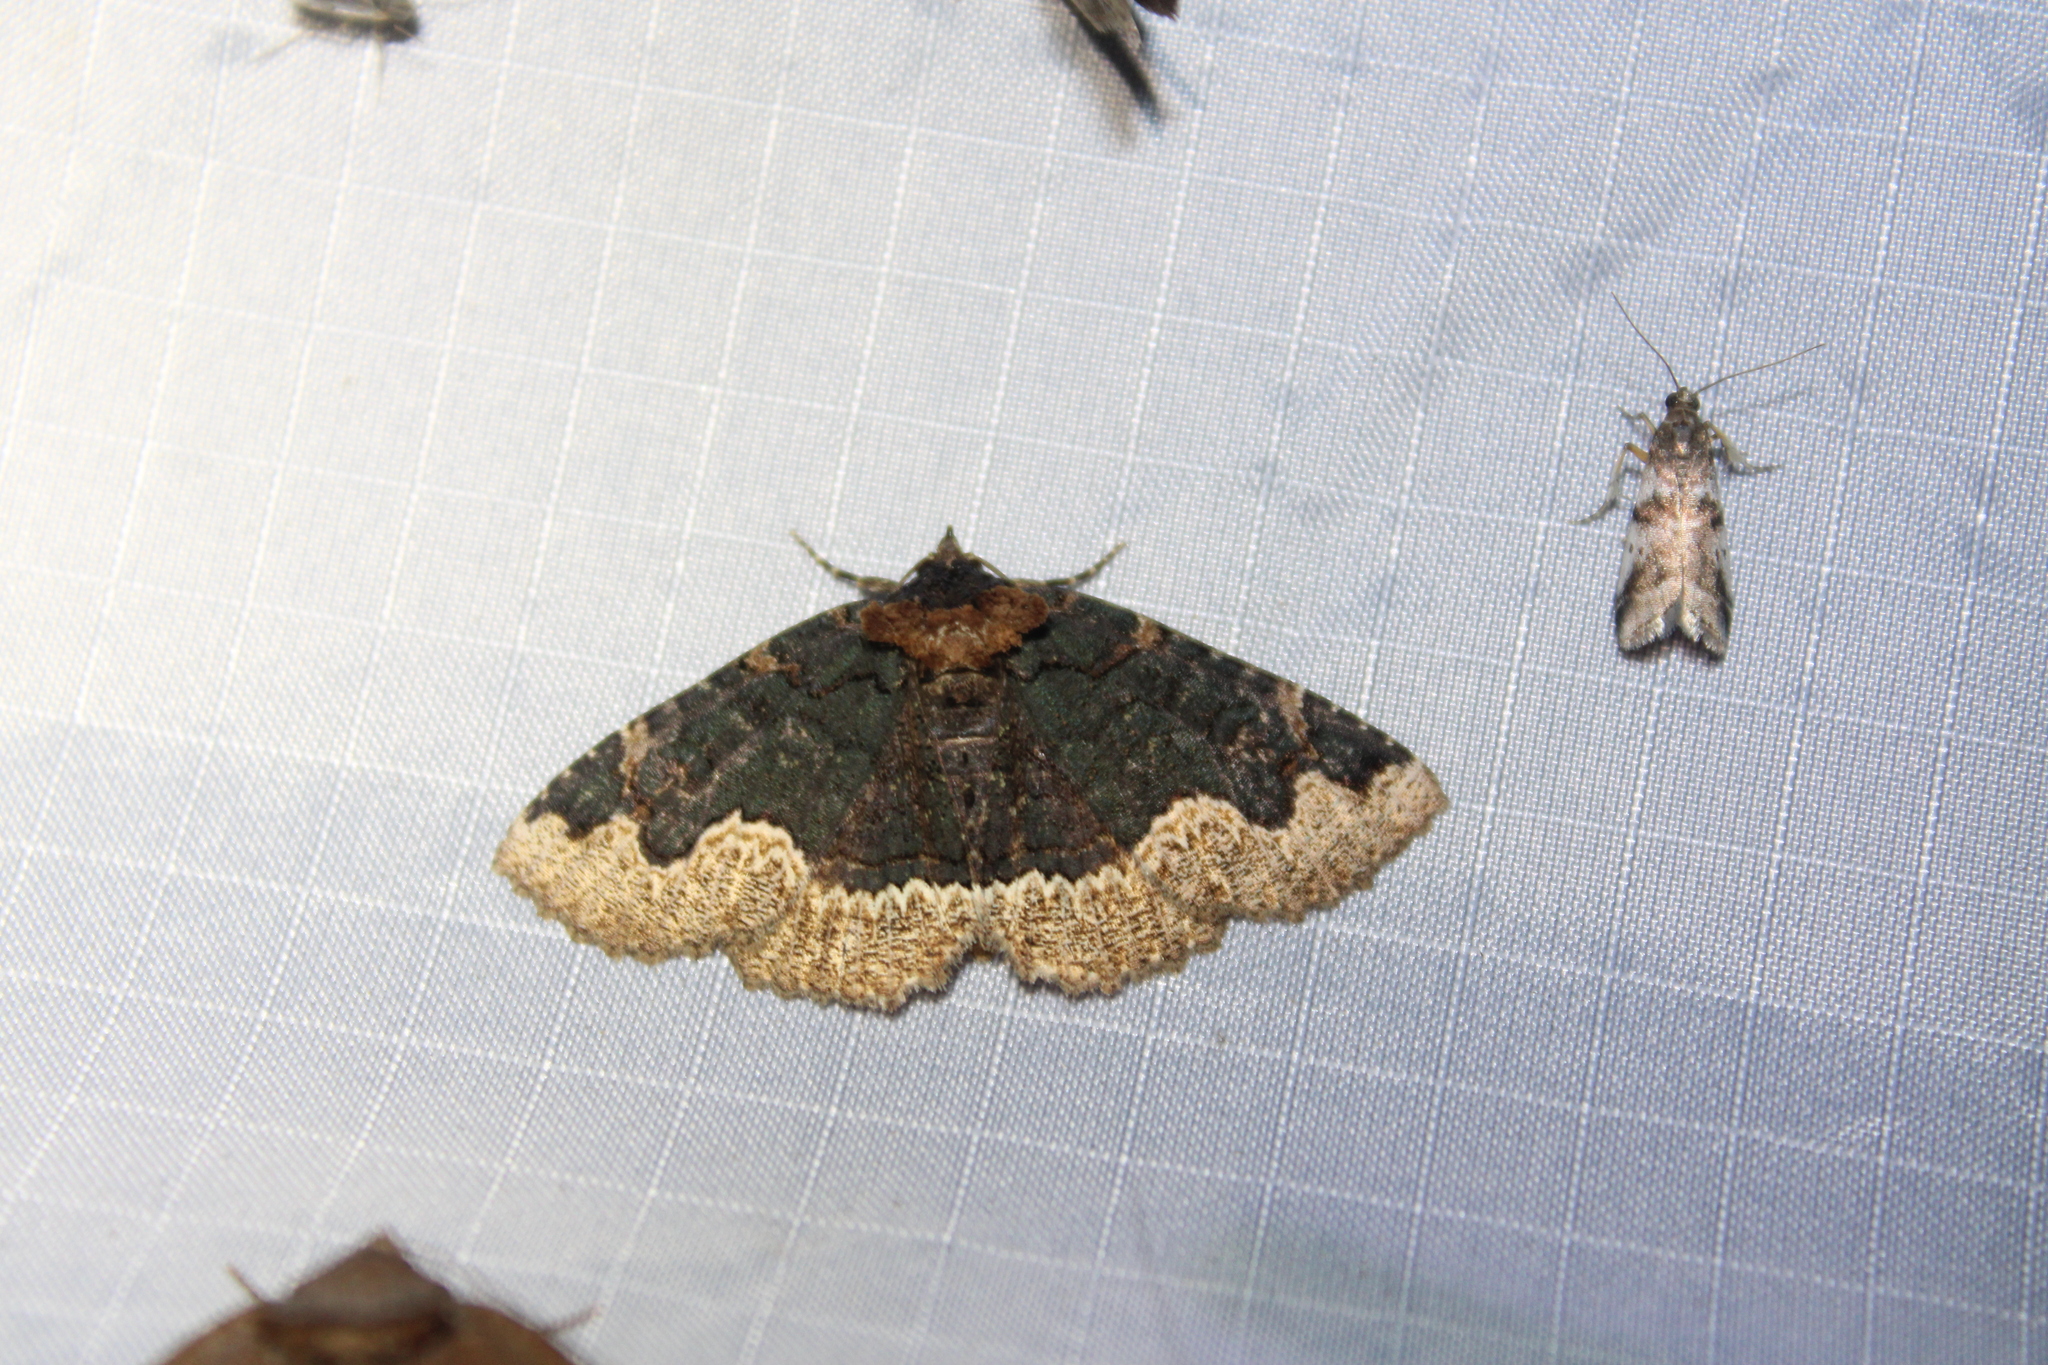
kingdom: Animalia
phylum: Arthropoda
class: Insecta
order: Lepidoptera
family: Erebidae
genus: Zale
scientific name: Zale horrida
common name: Horrid zale moth
